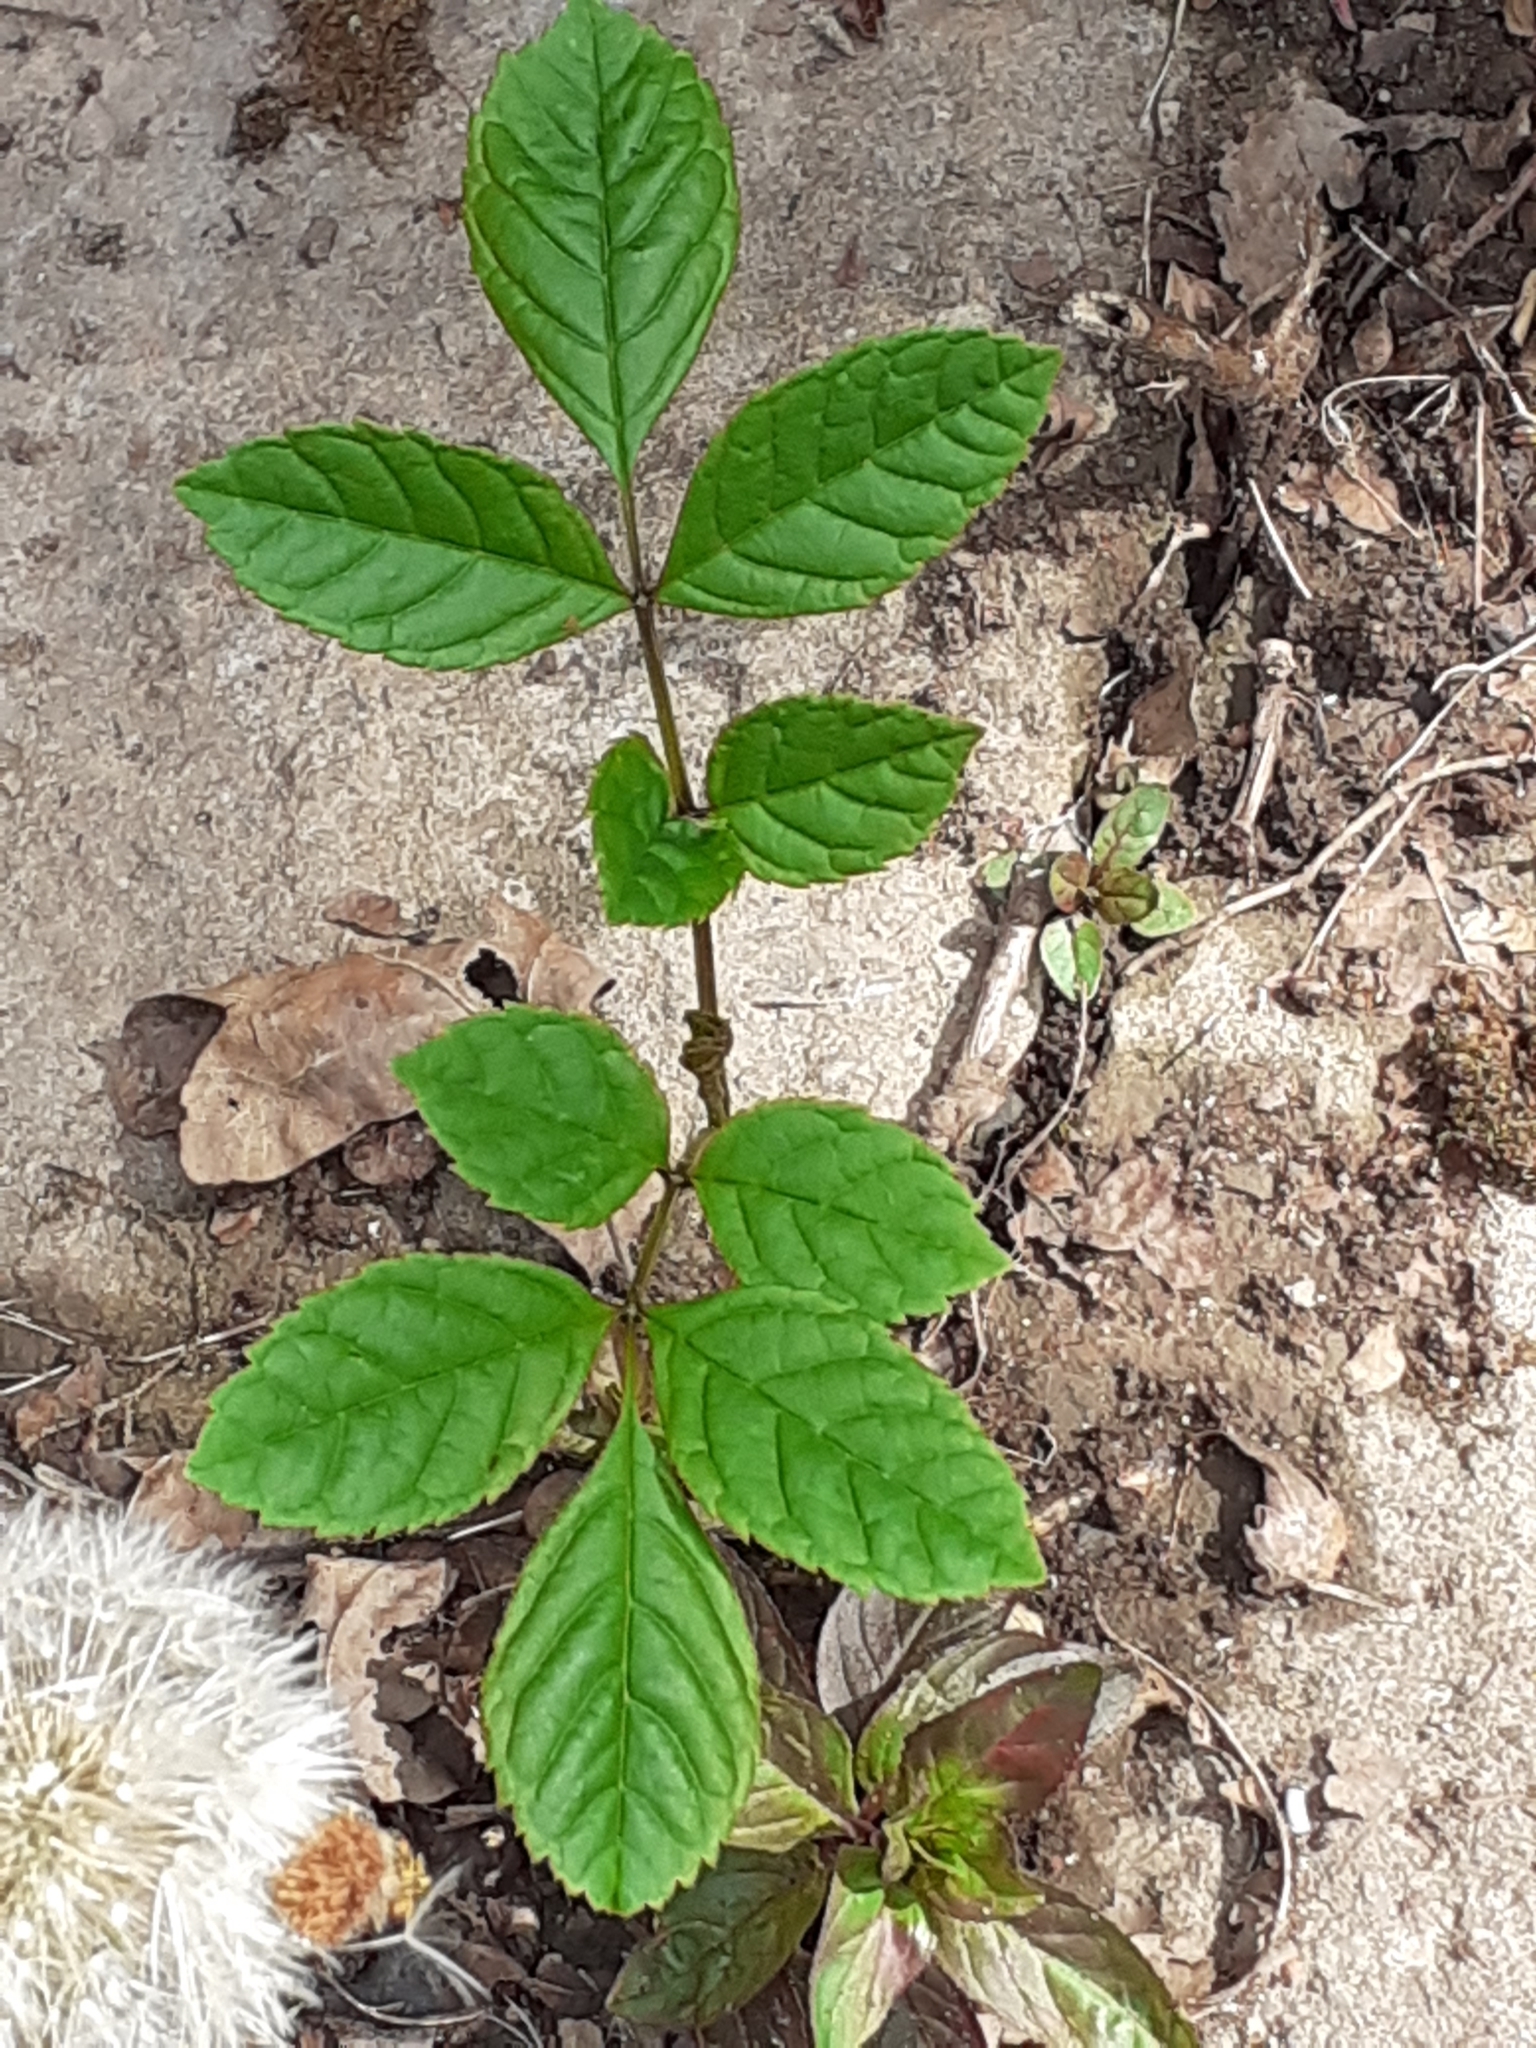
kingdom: Plantae
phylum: Tracheophyta
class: Magnoliopsida
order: Lamiales
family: Oleaceae
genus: Fraxinus
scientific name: Fraxinus excelsior
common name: European ash
